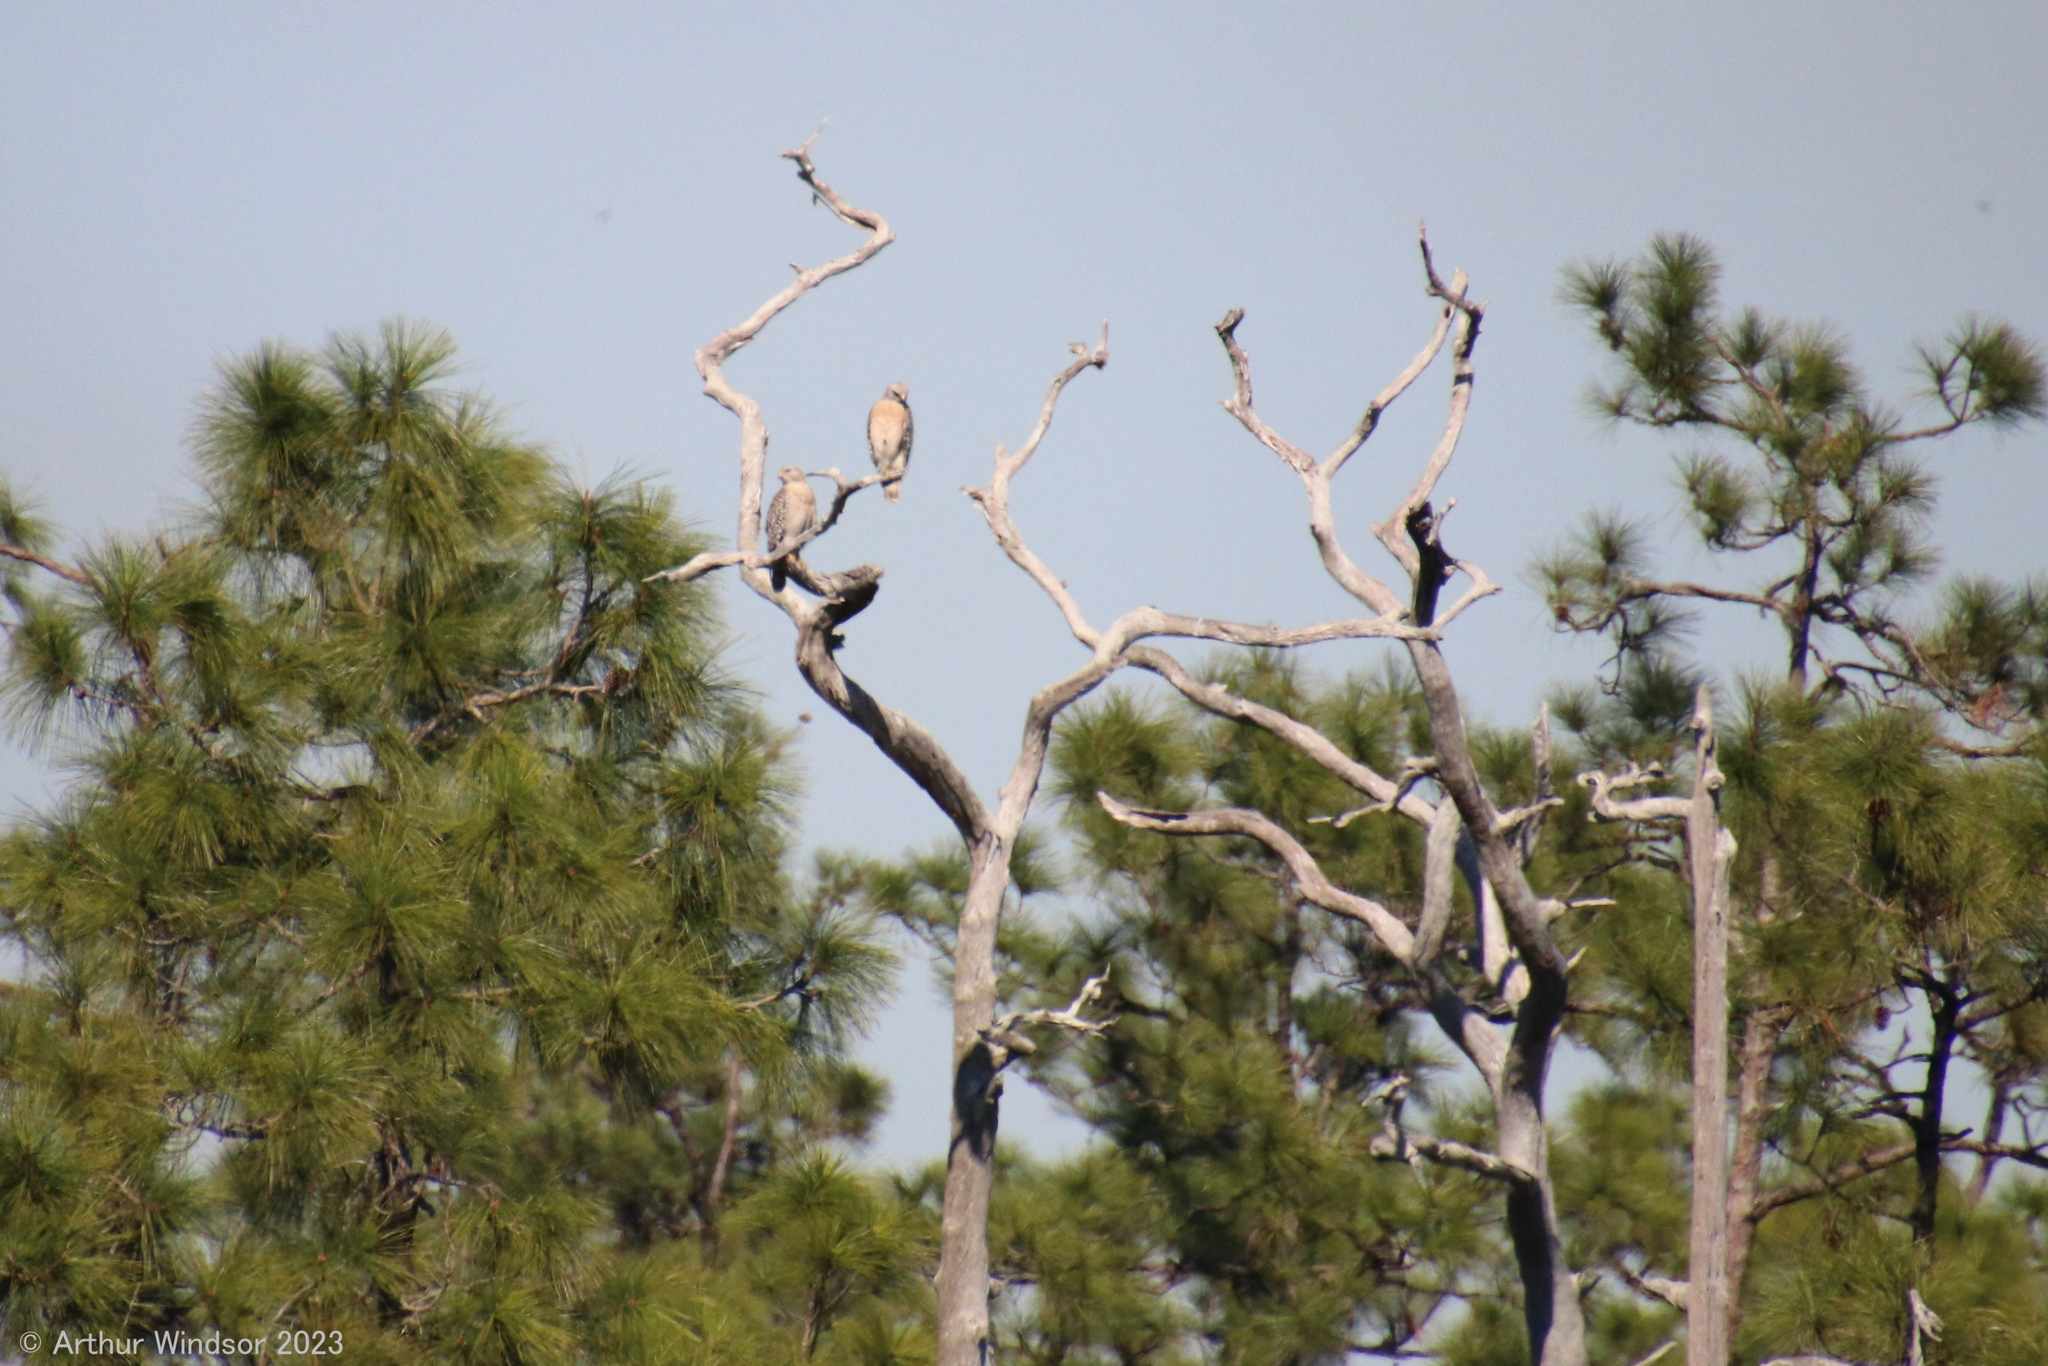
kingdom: Animalia
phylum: Chordata
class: Aves
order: Accipitriformes
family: Accipitridae
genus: Buteo
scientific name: Buteo lineatus
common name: Red-shouldered hawk
